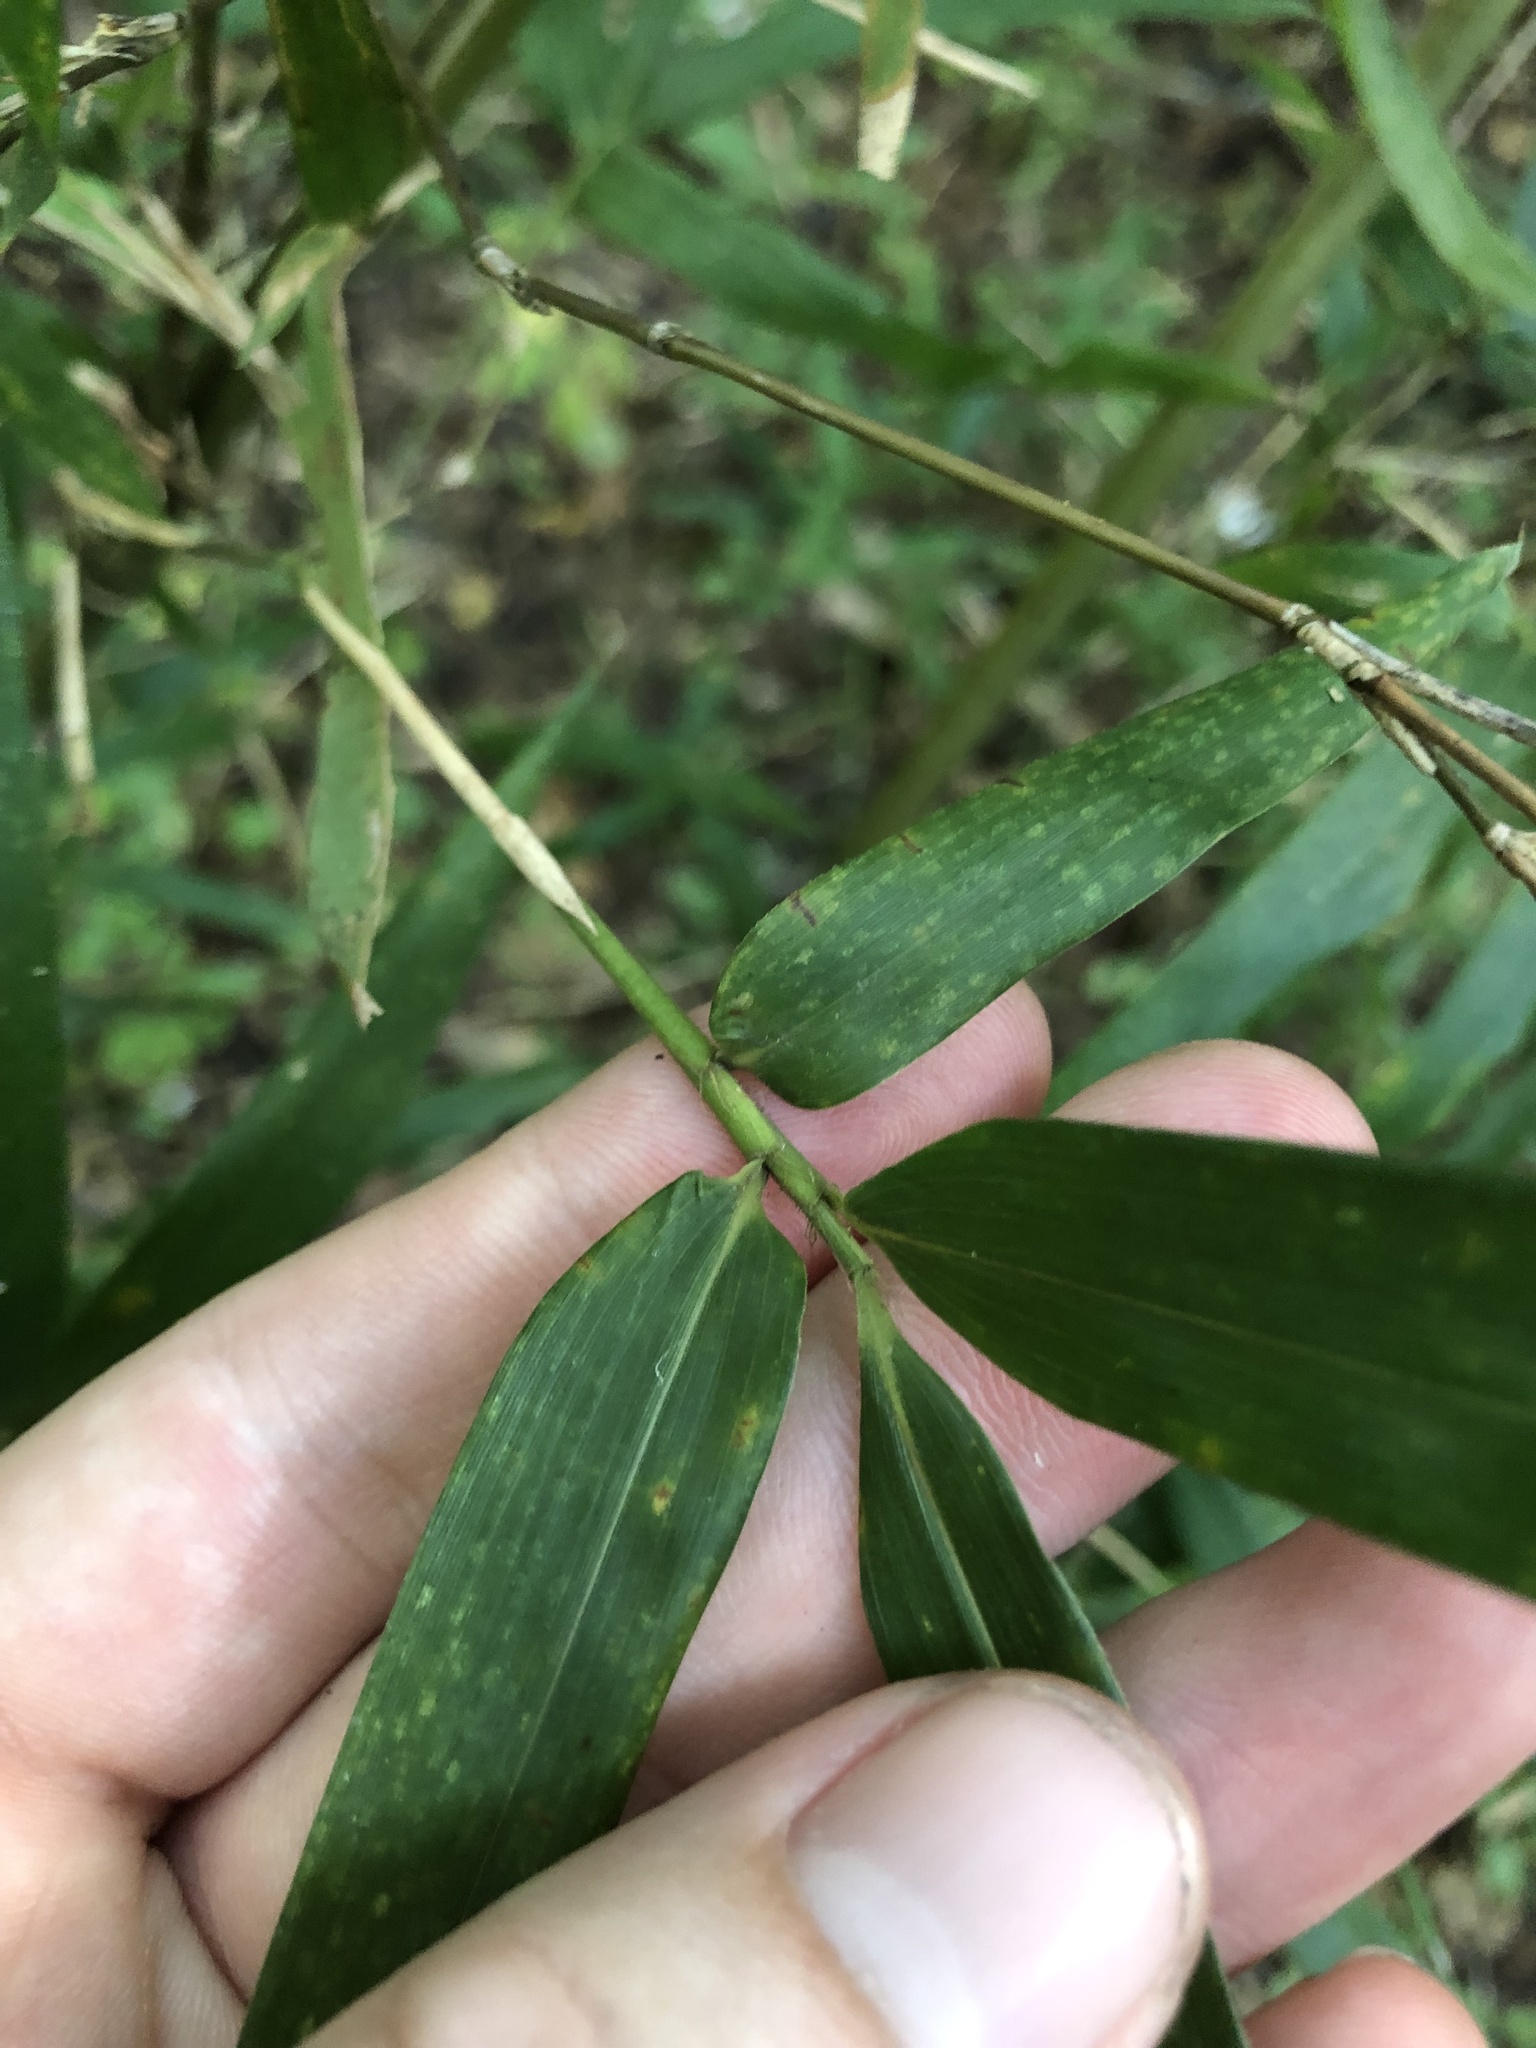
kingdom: Plantae
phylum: Tracheophyta
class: Liliopsida
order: Poales
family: Poaceae
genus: Arundinaria
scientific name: Arundinaria gigantea
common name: Giant cane
